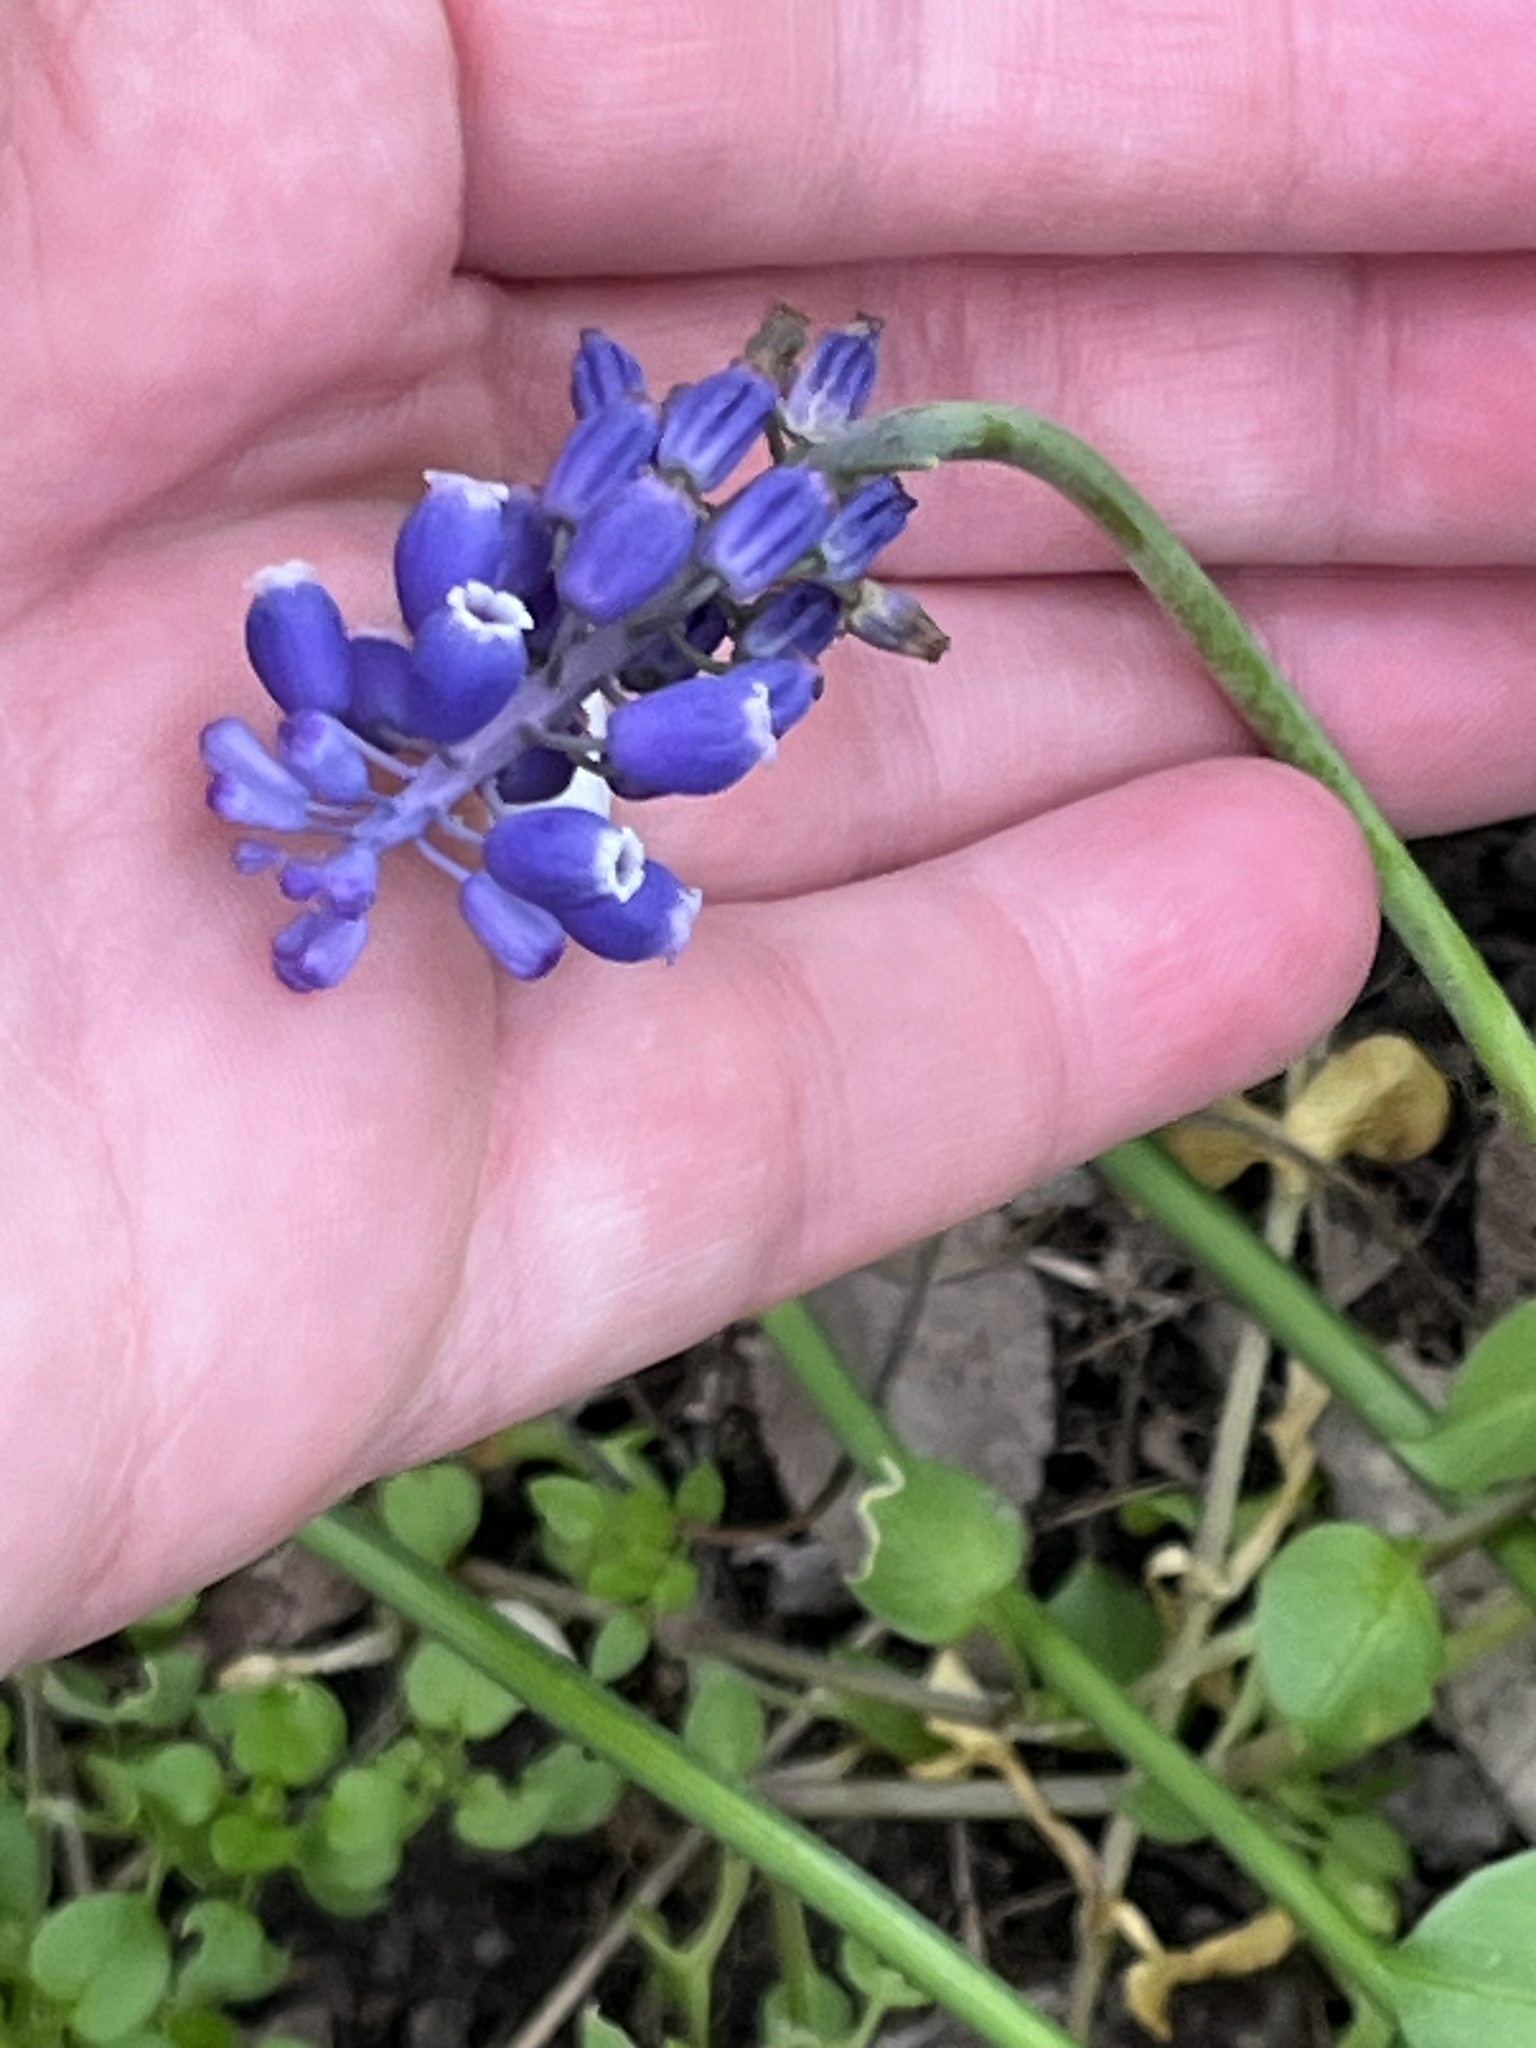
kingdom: Plantae
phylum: Tracheophyta
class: Liliopsida
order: Asparagales
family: Asparagaceae
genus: Muscari
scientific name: Muscari neglectum
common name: Grape-hyacinth
